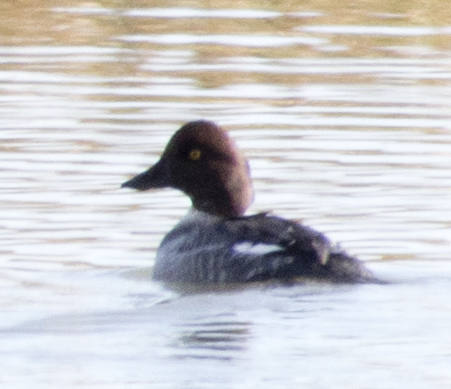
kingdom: Animalia
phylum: Chordata
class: Aves
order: Anseriformes
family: Anatidae
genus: Bucephala
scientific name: Bucephala clangula
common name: Common goldeneye
